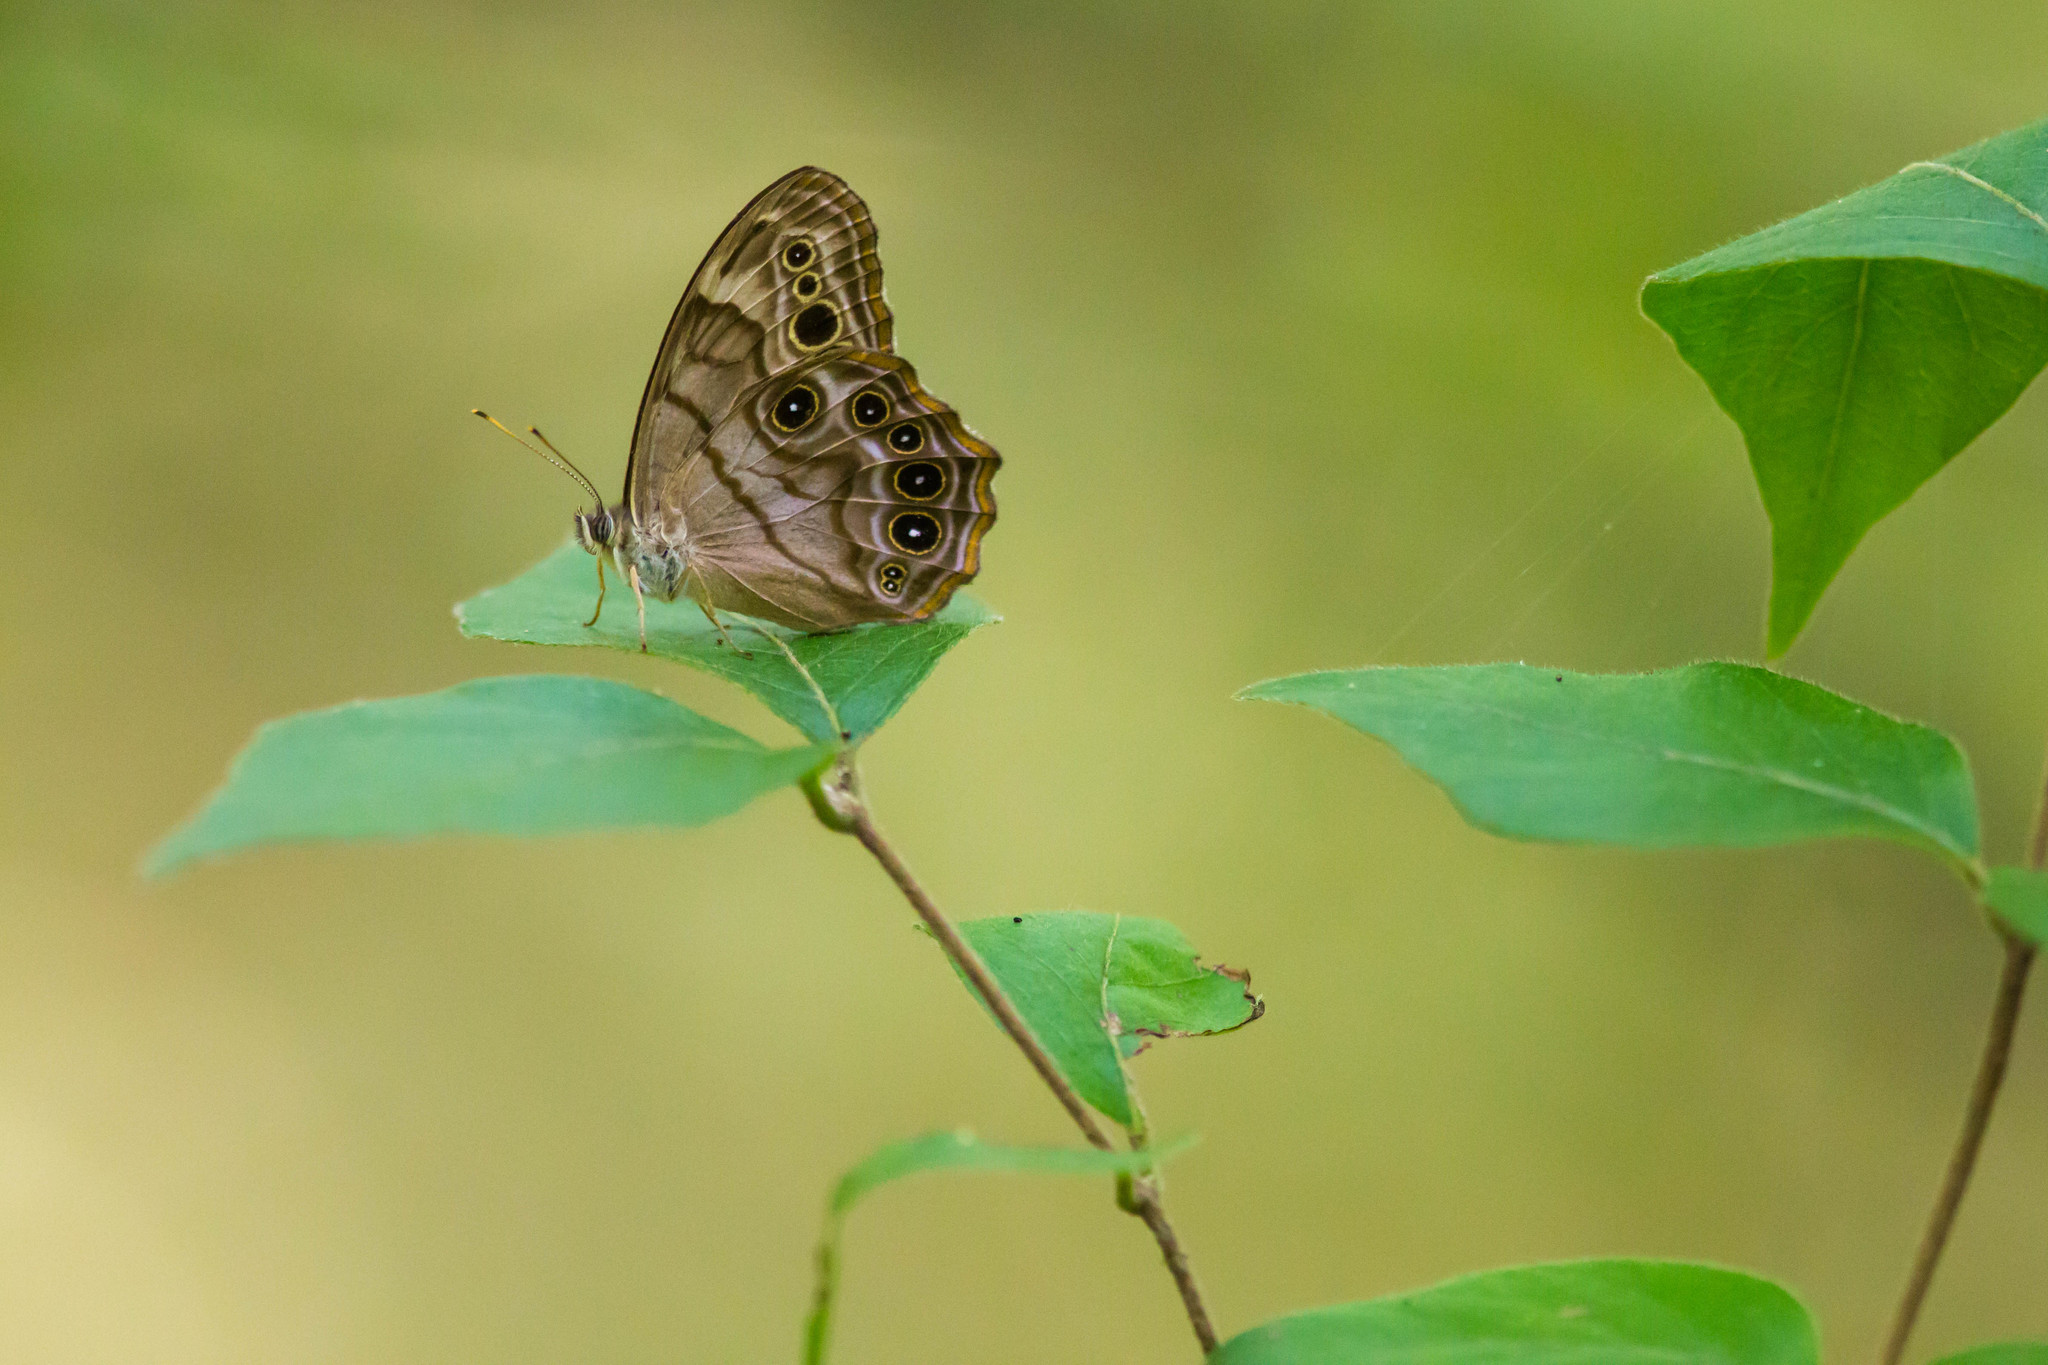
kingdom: Animalia
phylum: Arthropoda
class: Insecta
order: Lepidoptera
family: Nymphalidae
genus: Lethe
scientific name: Lethe anthedon
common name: Northern pearly-eye
